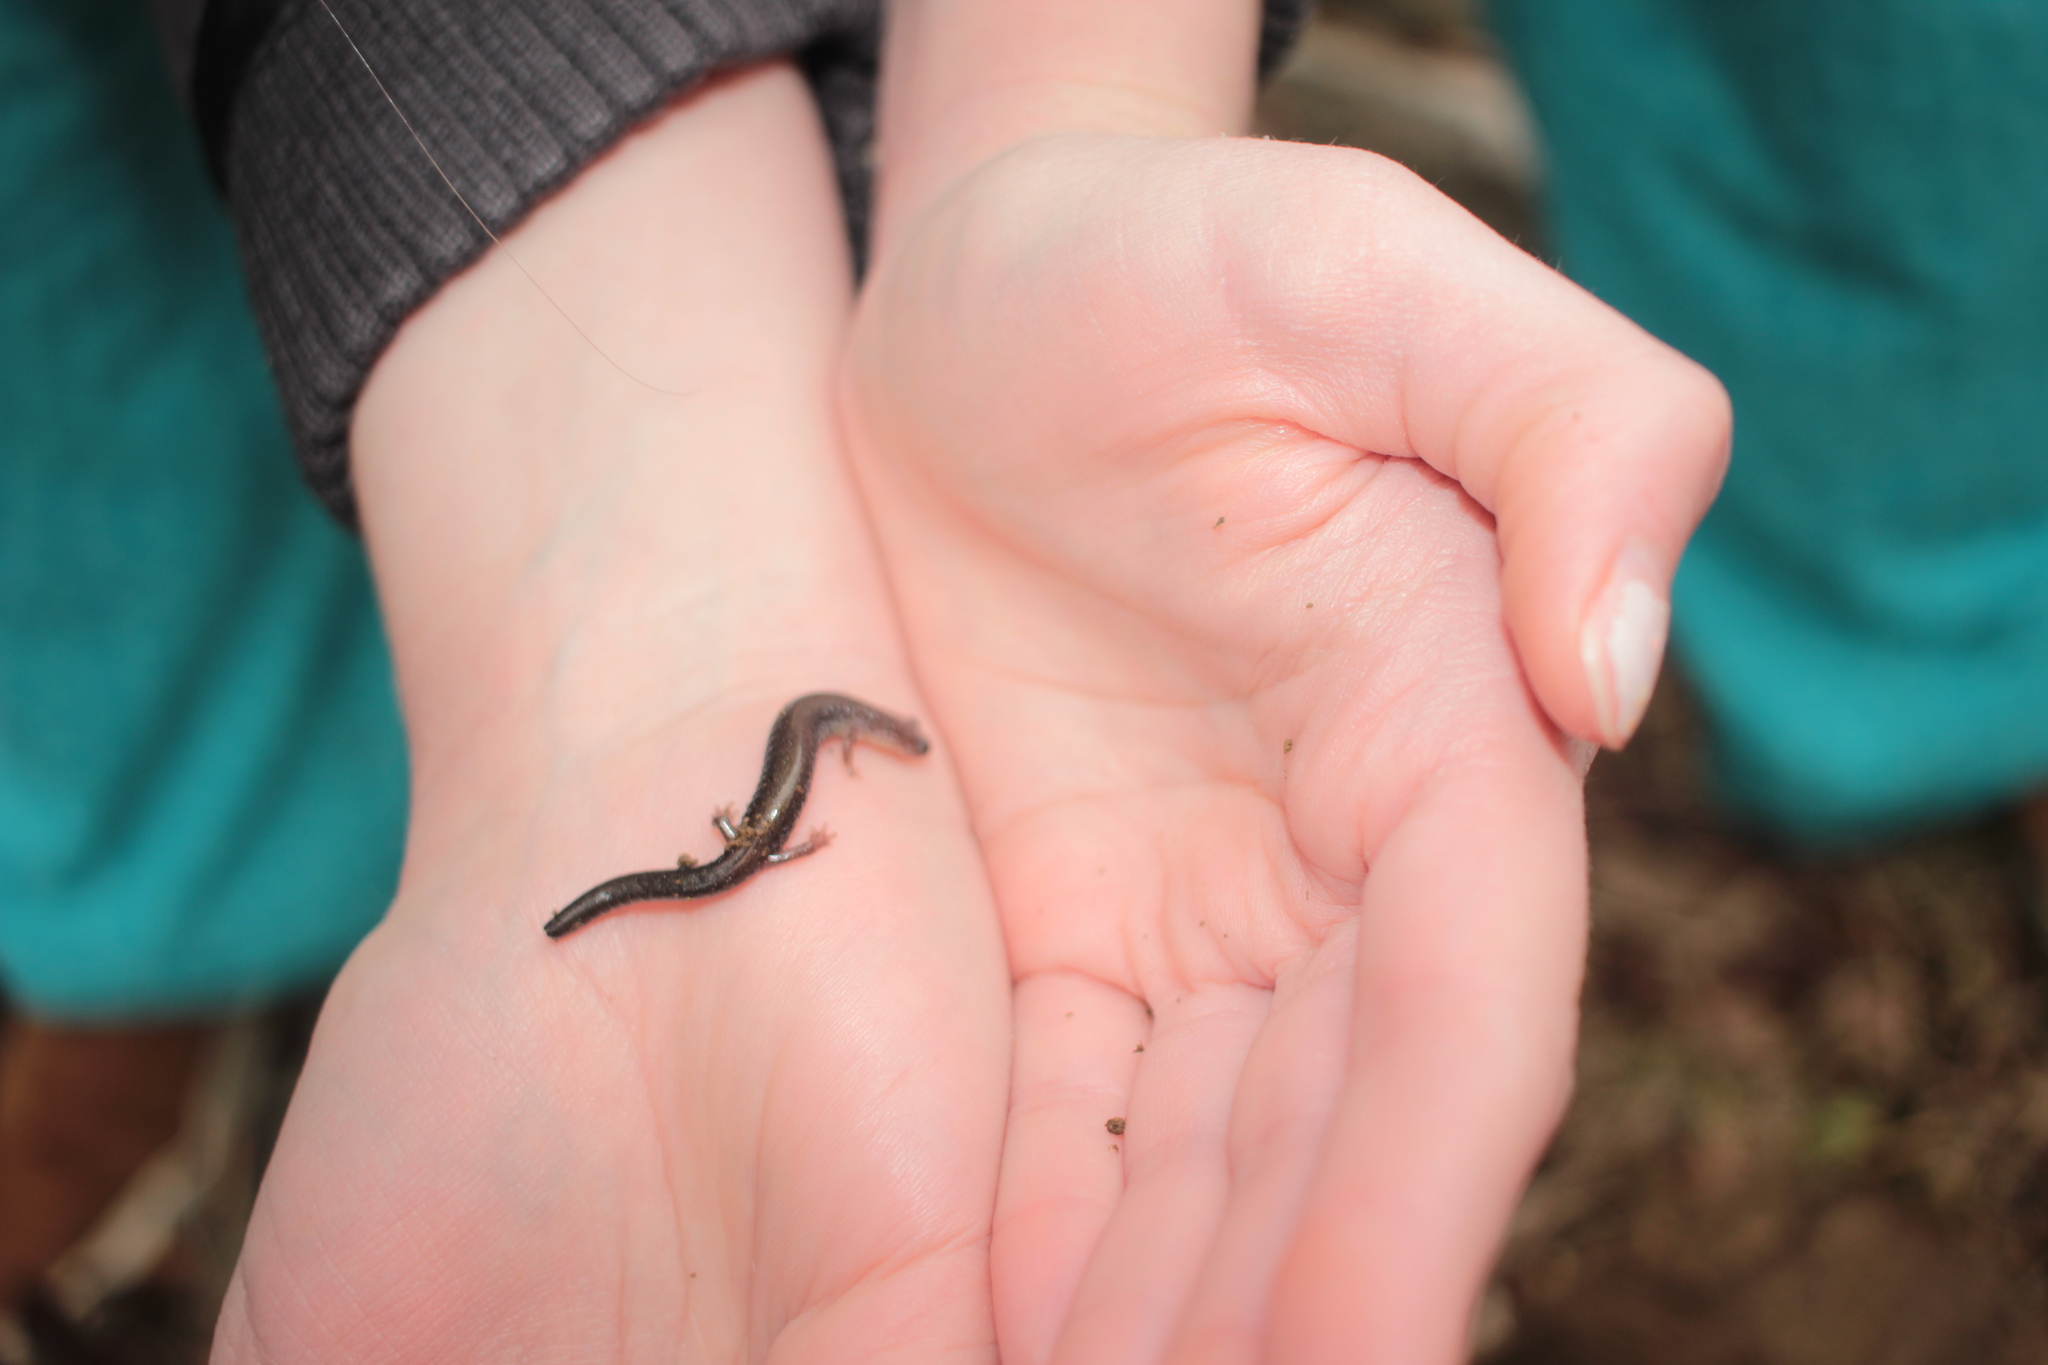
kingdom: Animalia
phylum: Chordata
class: Amphibia
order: Caudata
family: Plethodontidae
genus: Plethodon
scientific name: Plethodon cinereus
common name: Redback salamander
